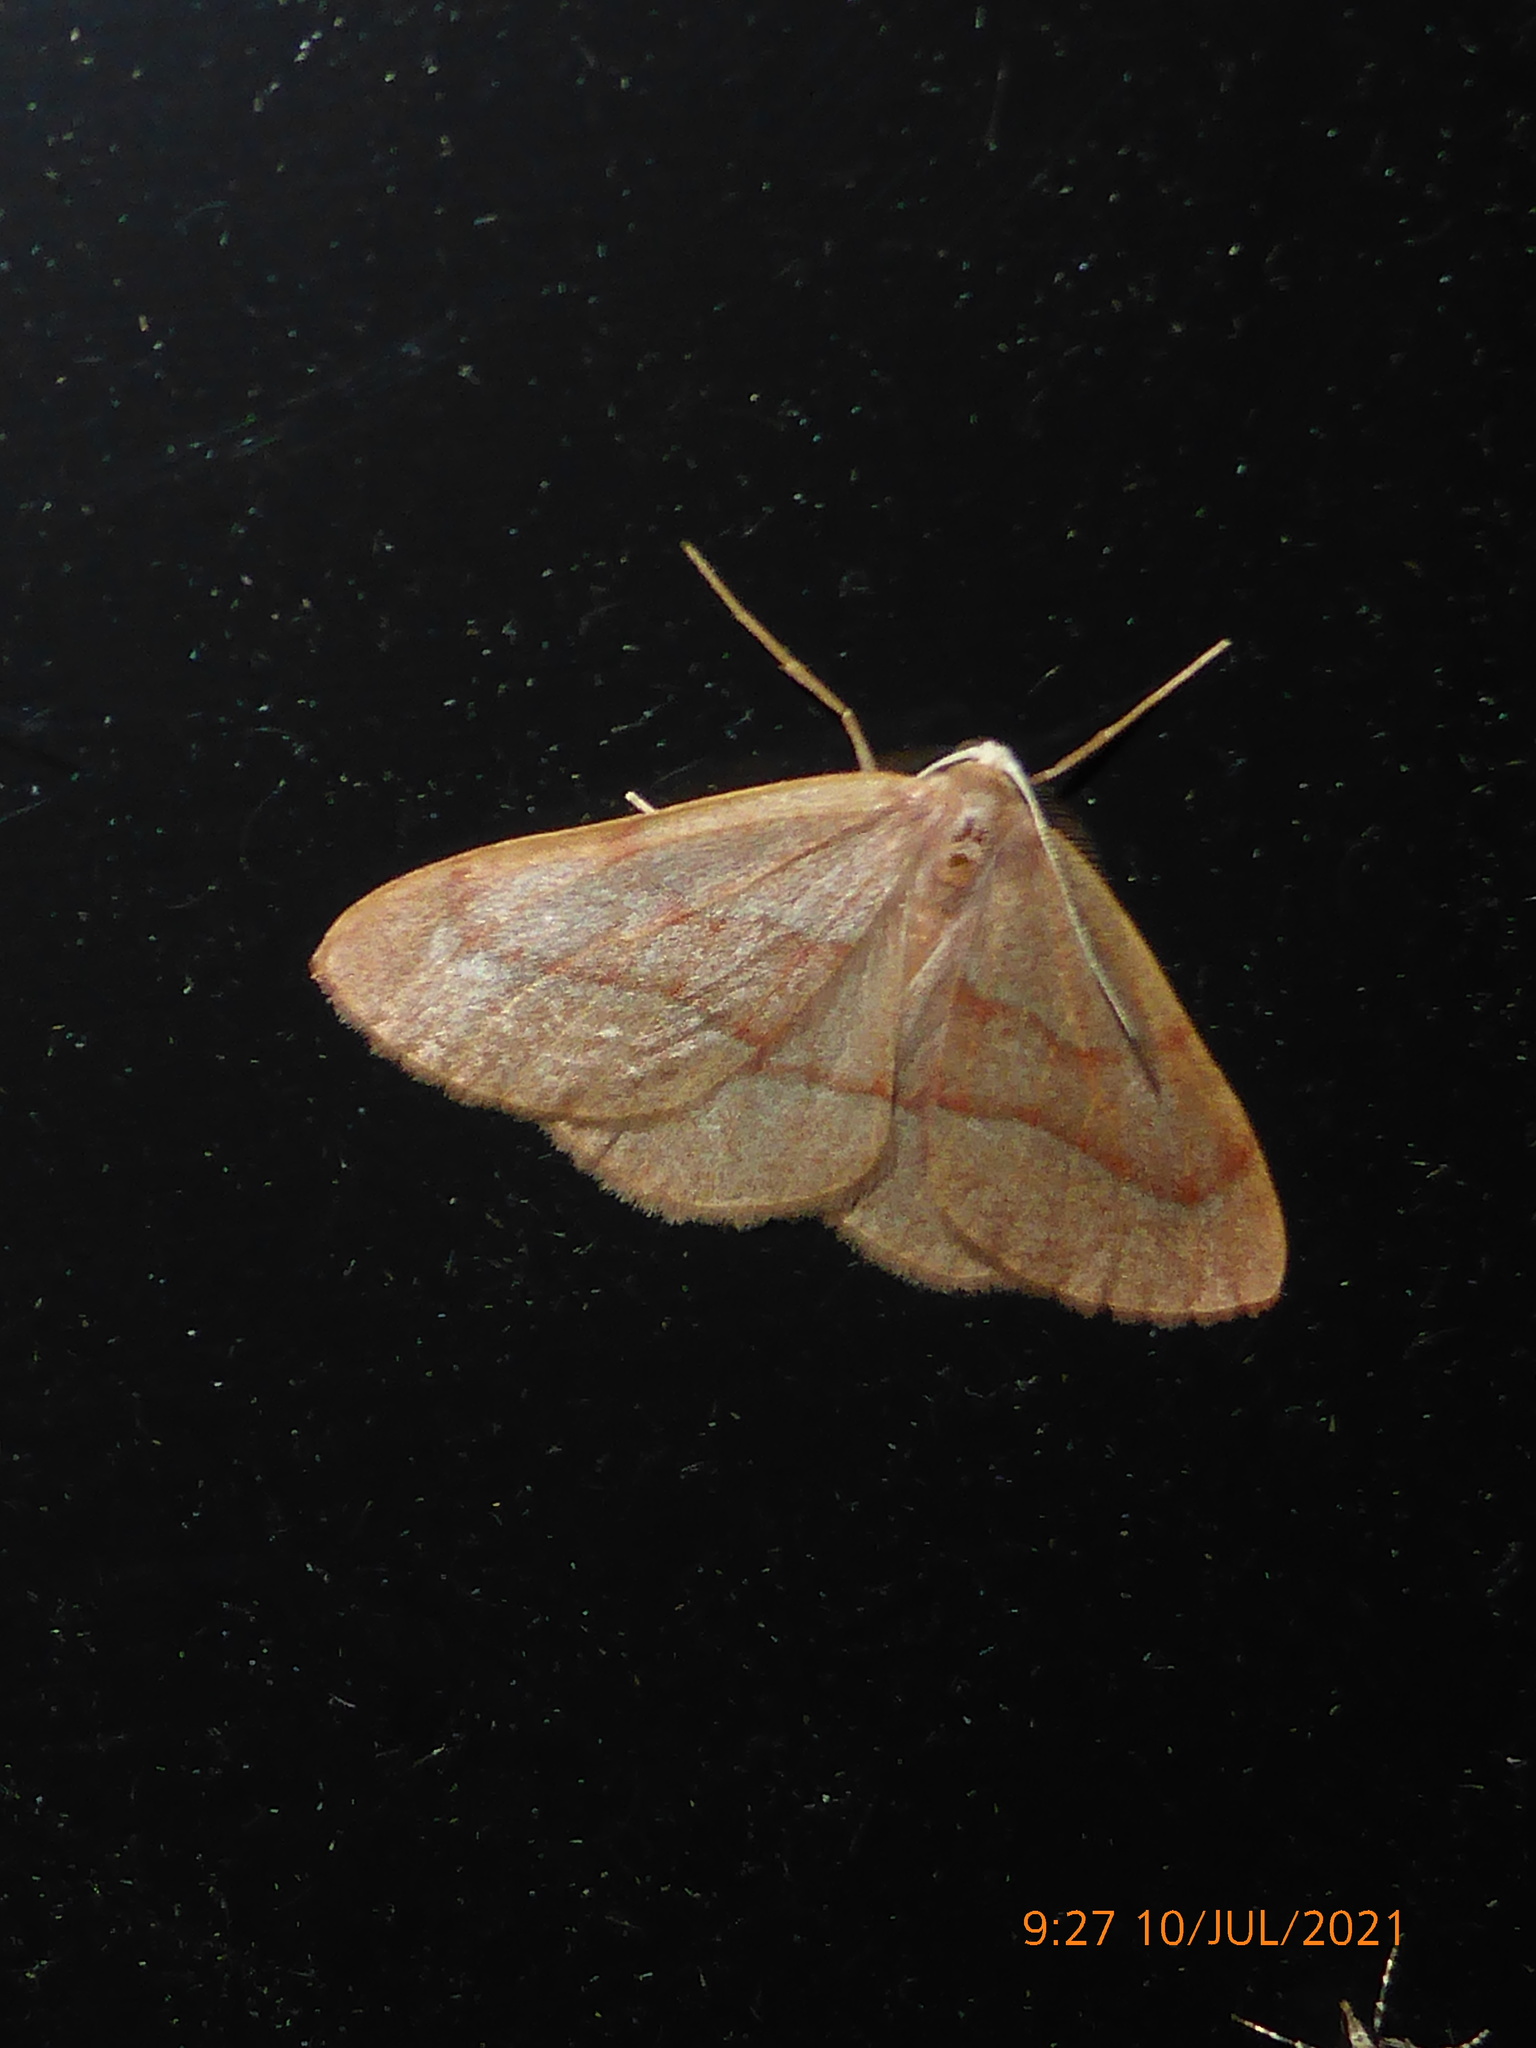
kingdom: Animalia
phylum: Arthropoda
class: Insecta
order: Lepidoptera
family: Geometridae
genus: Hylaea
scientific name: Hylaea fasciaria
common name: Barred red
